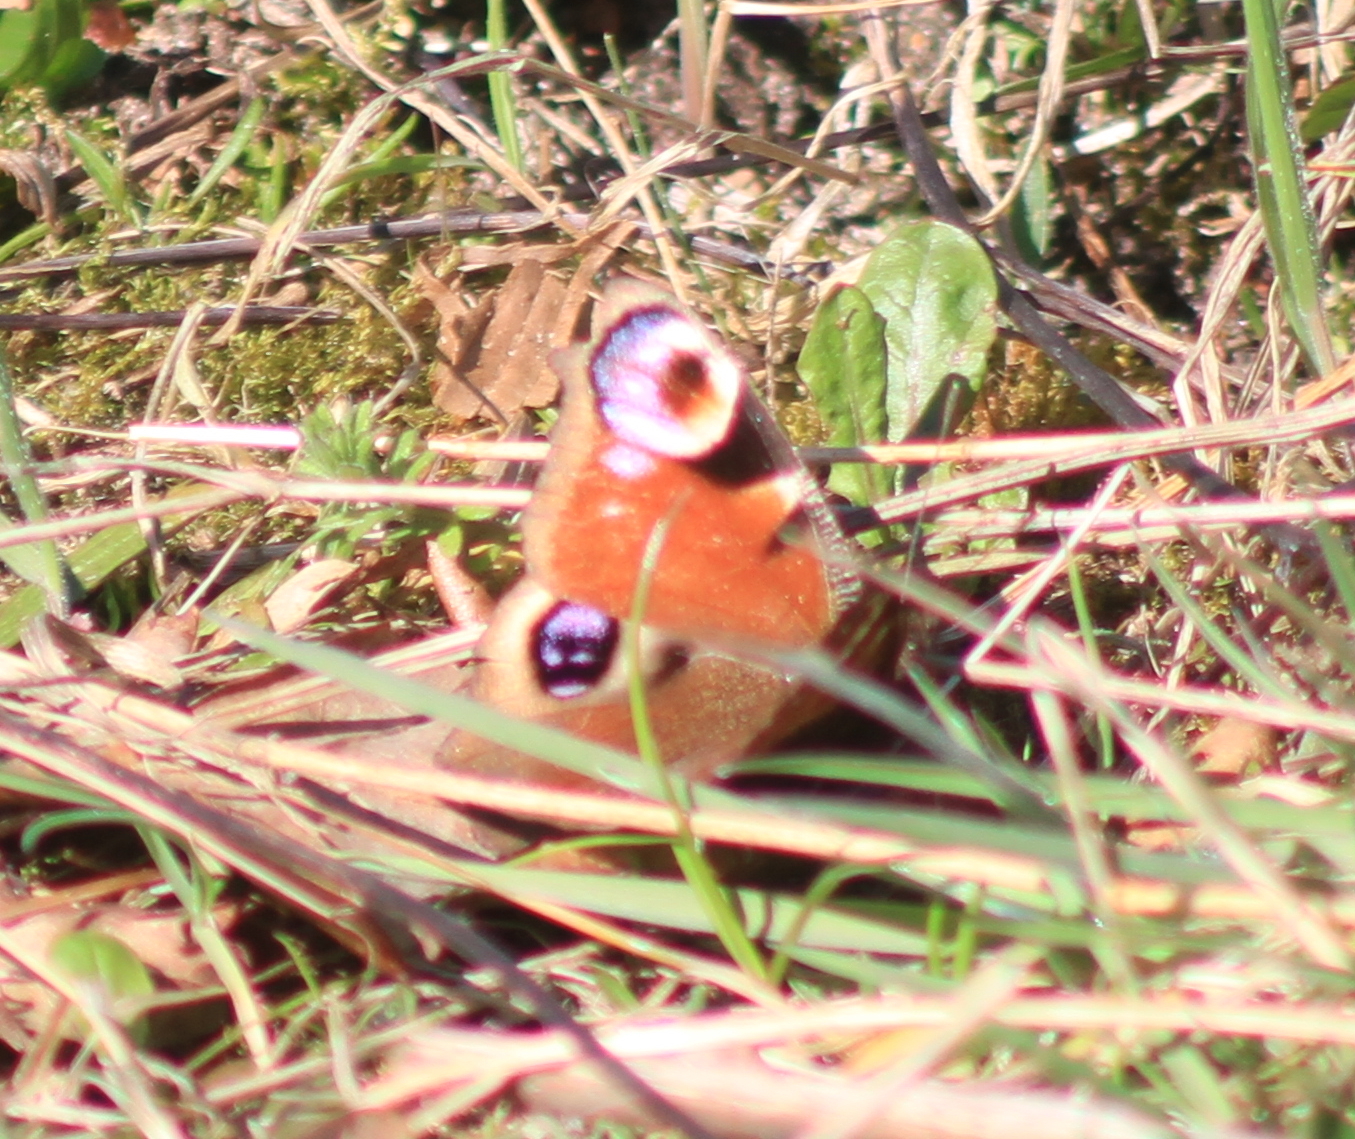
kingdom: Animalia
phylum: Arthropoda
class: Insecta
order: Lepidoptera
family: Nymphalidae
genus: Aglais
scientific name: Aglais io
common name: Peacock
